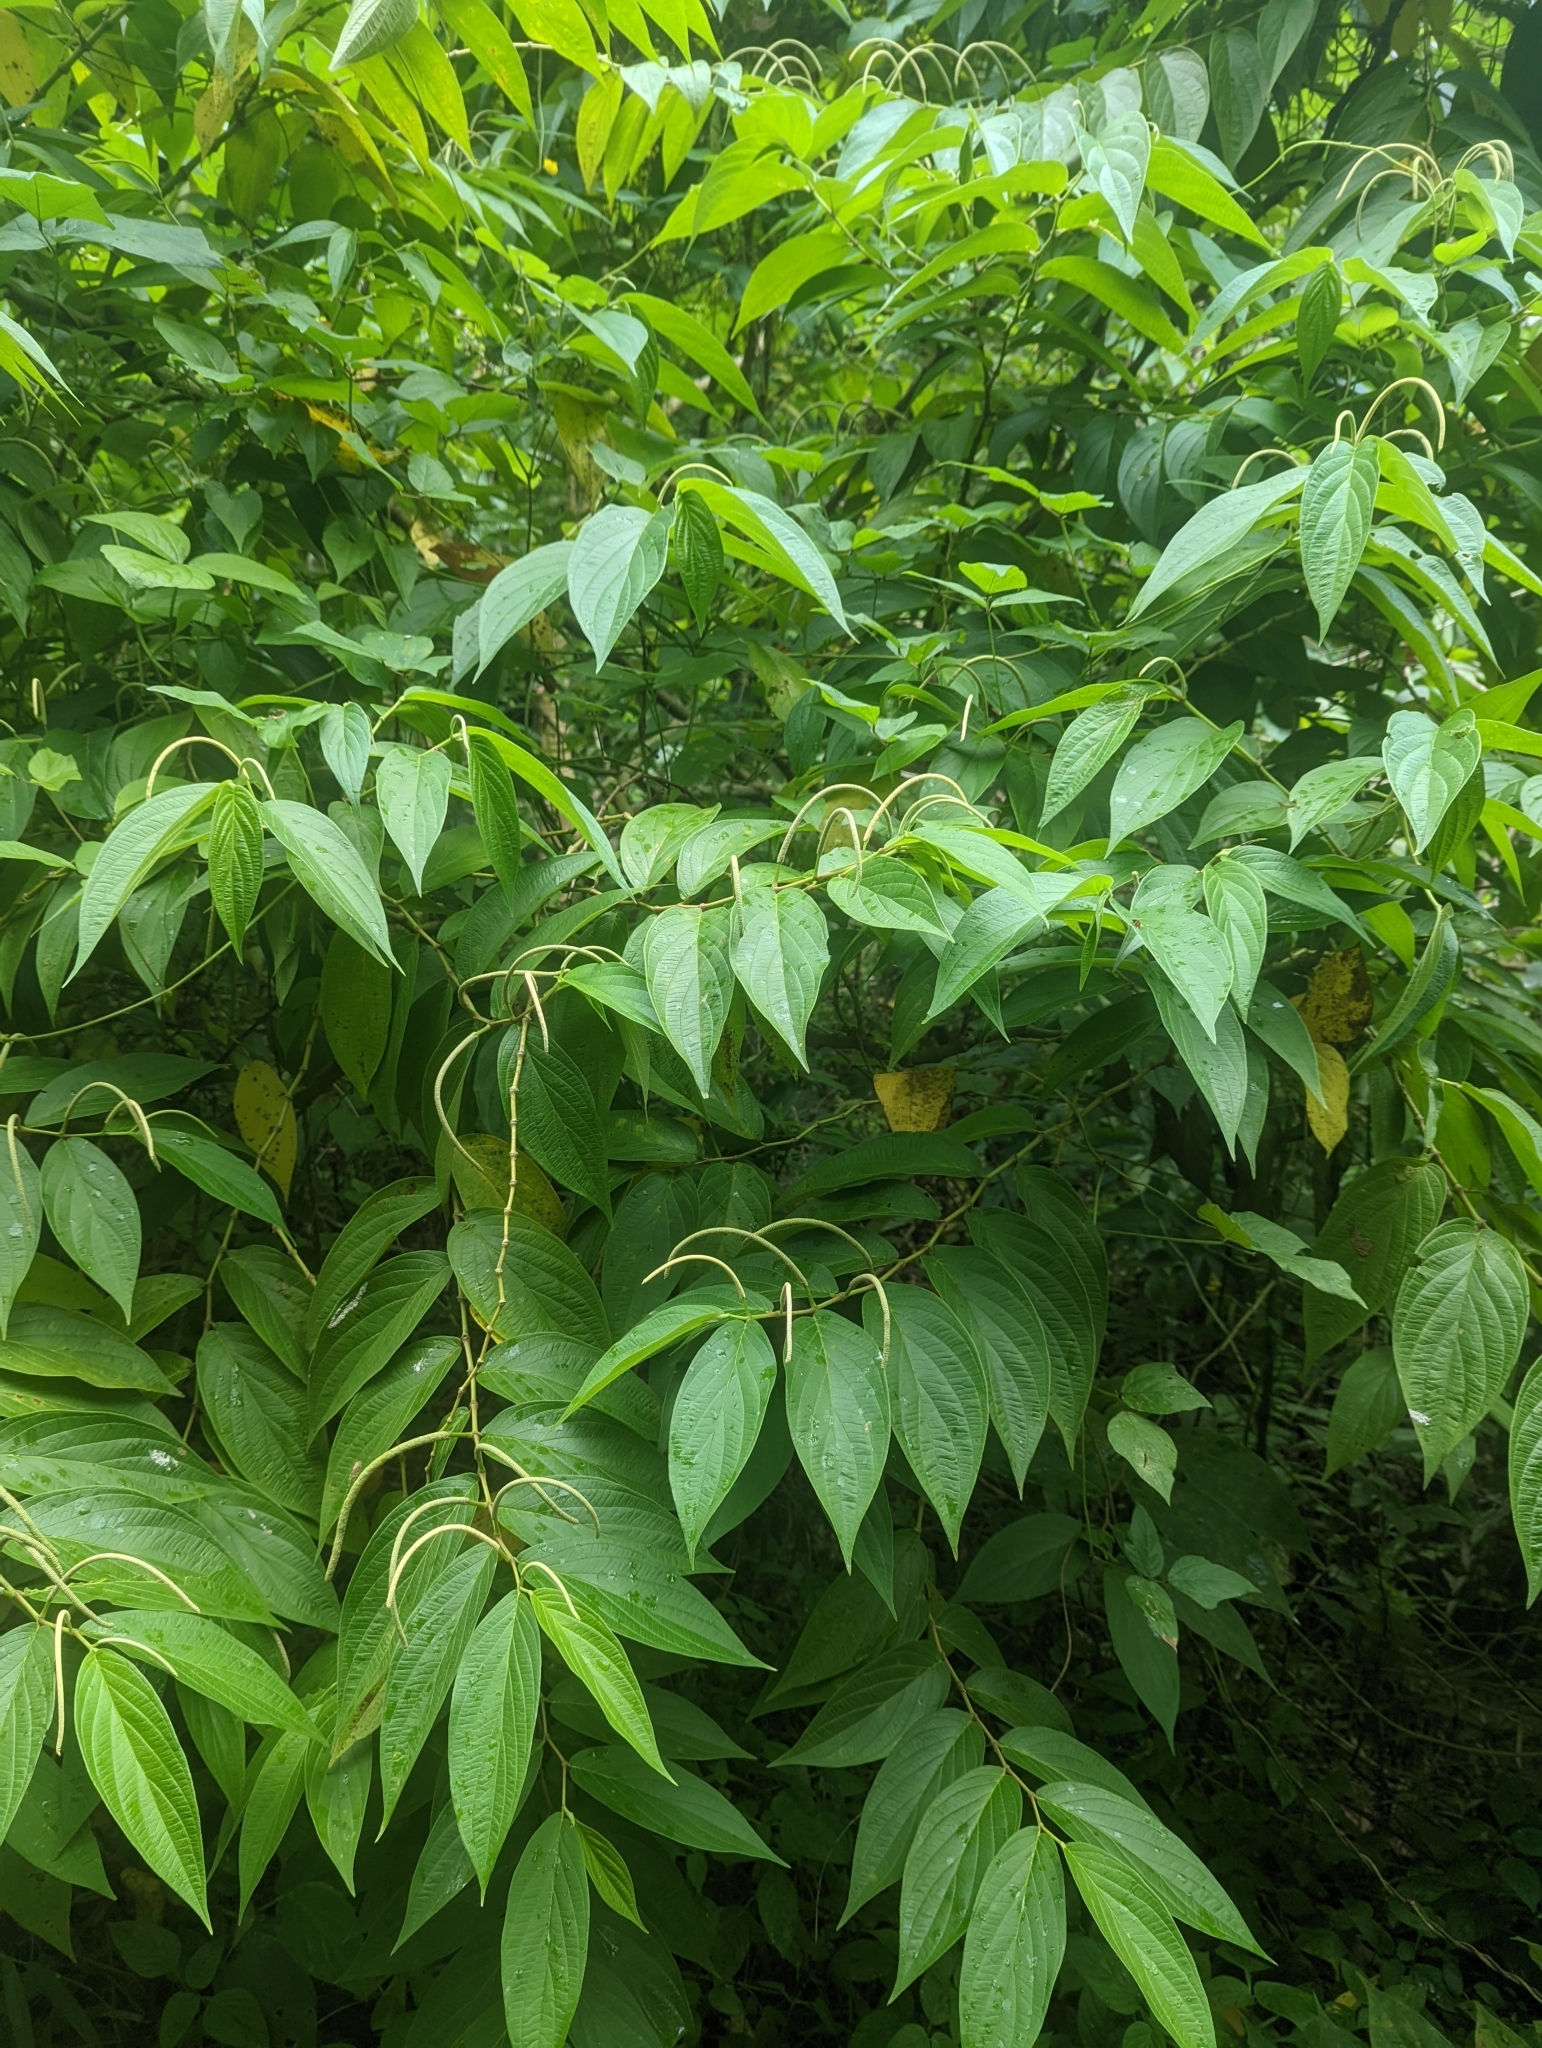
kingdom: Plantae
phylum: Tracheophyta
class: Magnoliopsida
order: Piperales
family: Piperaceae
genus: Piper
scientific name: Piper aduncum
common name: Spiked pepper
